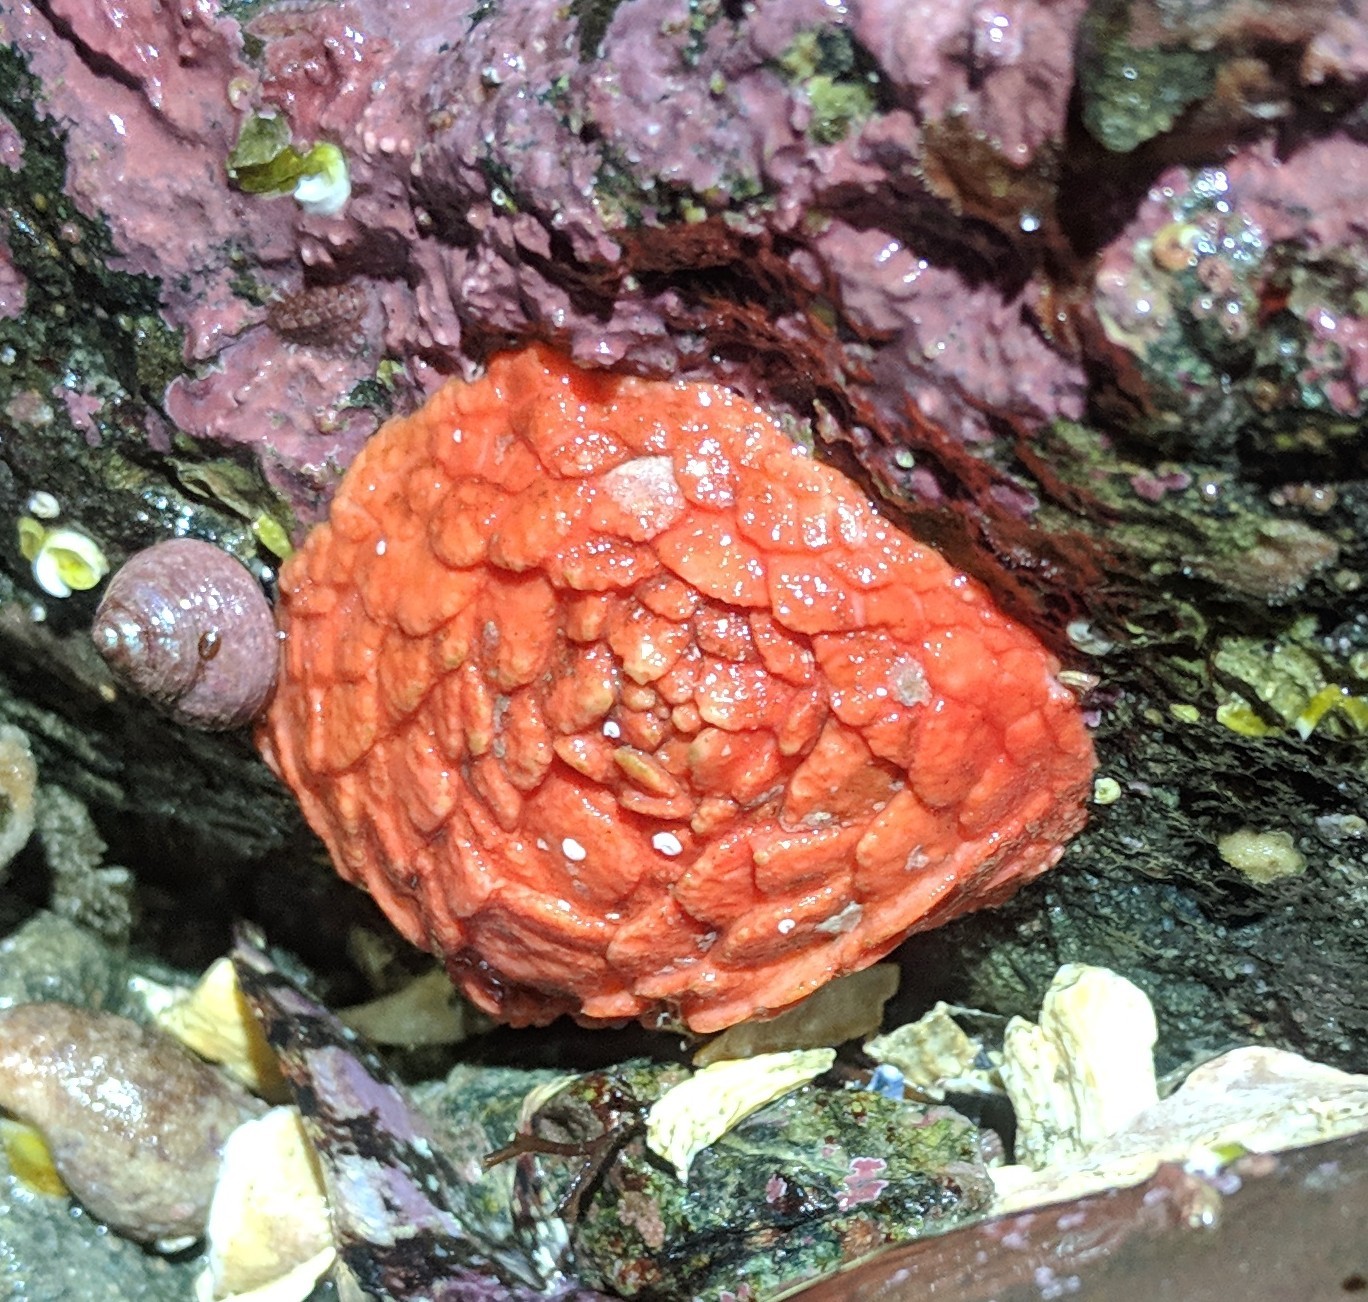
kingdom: Animalia
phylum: Echinodermata
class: Holothuroidea
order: Dendrochirotida
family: Psolidae
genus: Psolus
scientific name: Psolus chitonoides
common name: Creeping pedal sea cucumber
